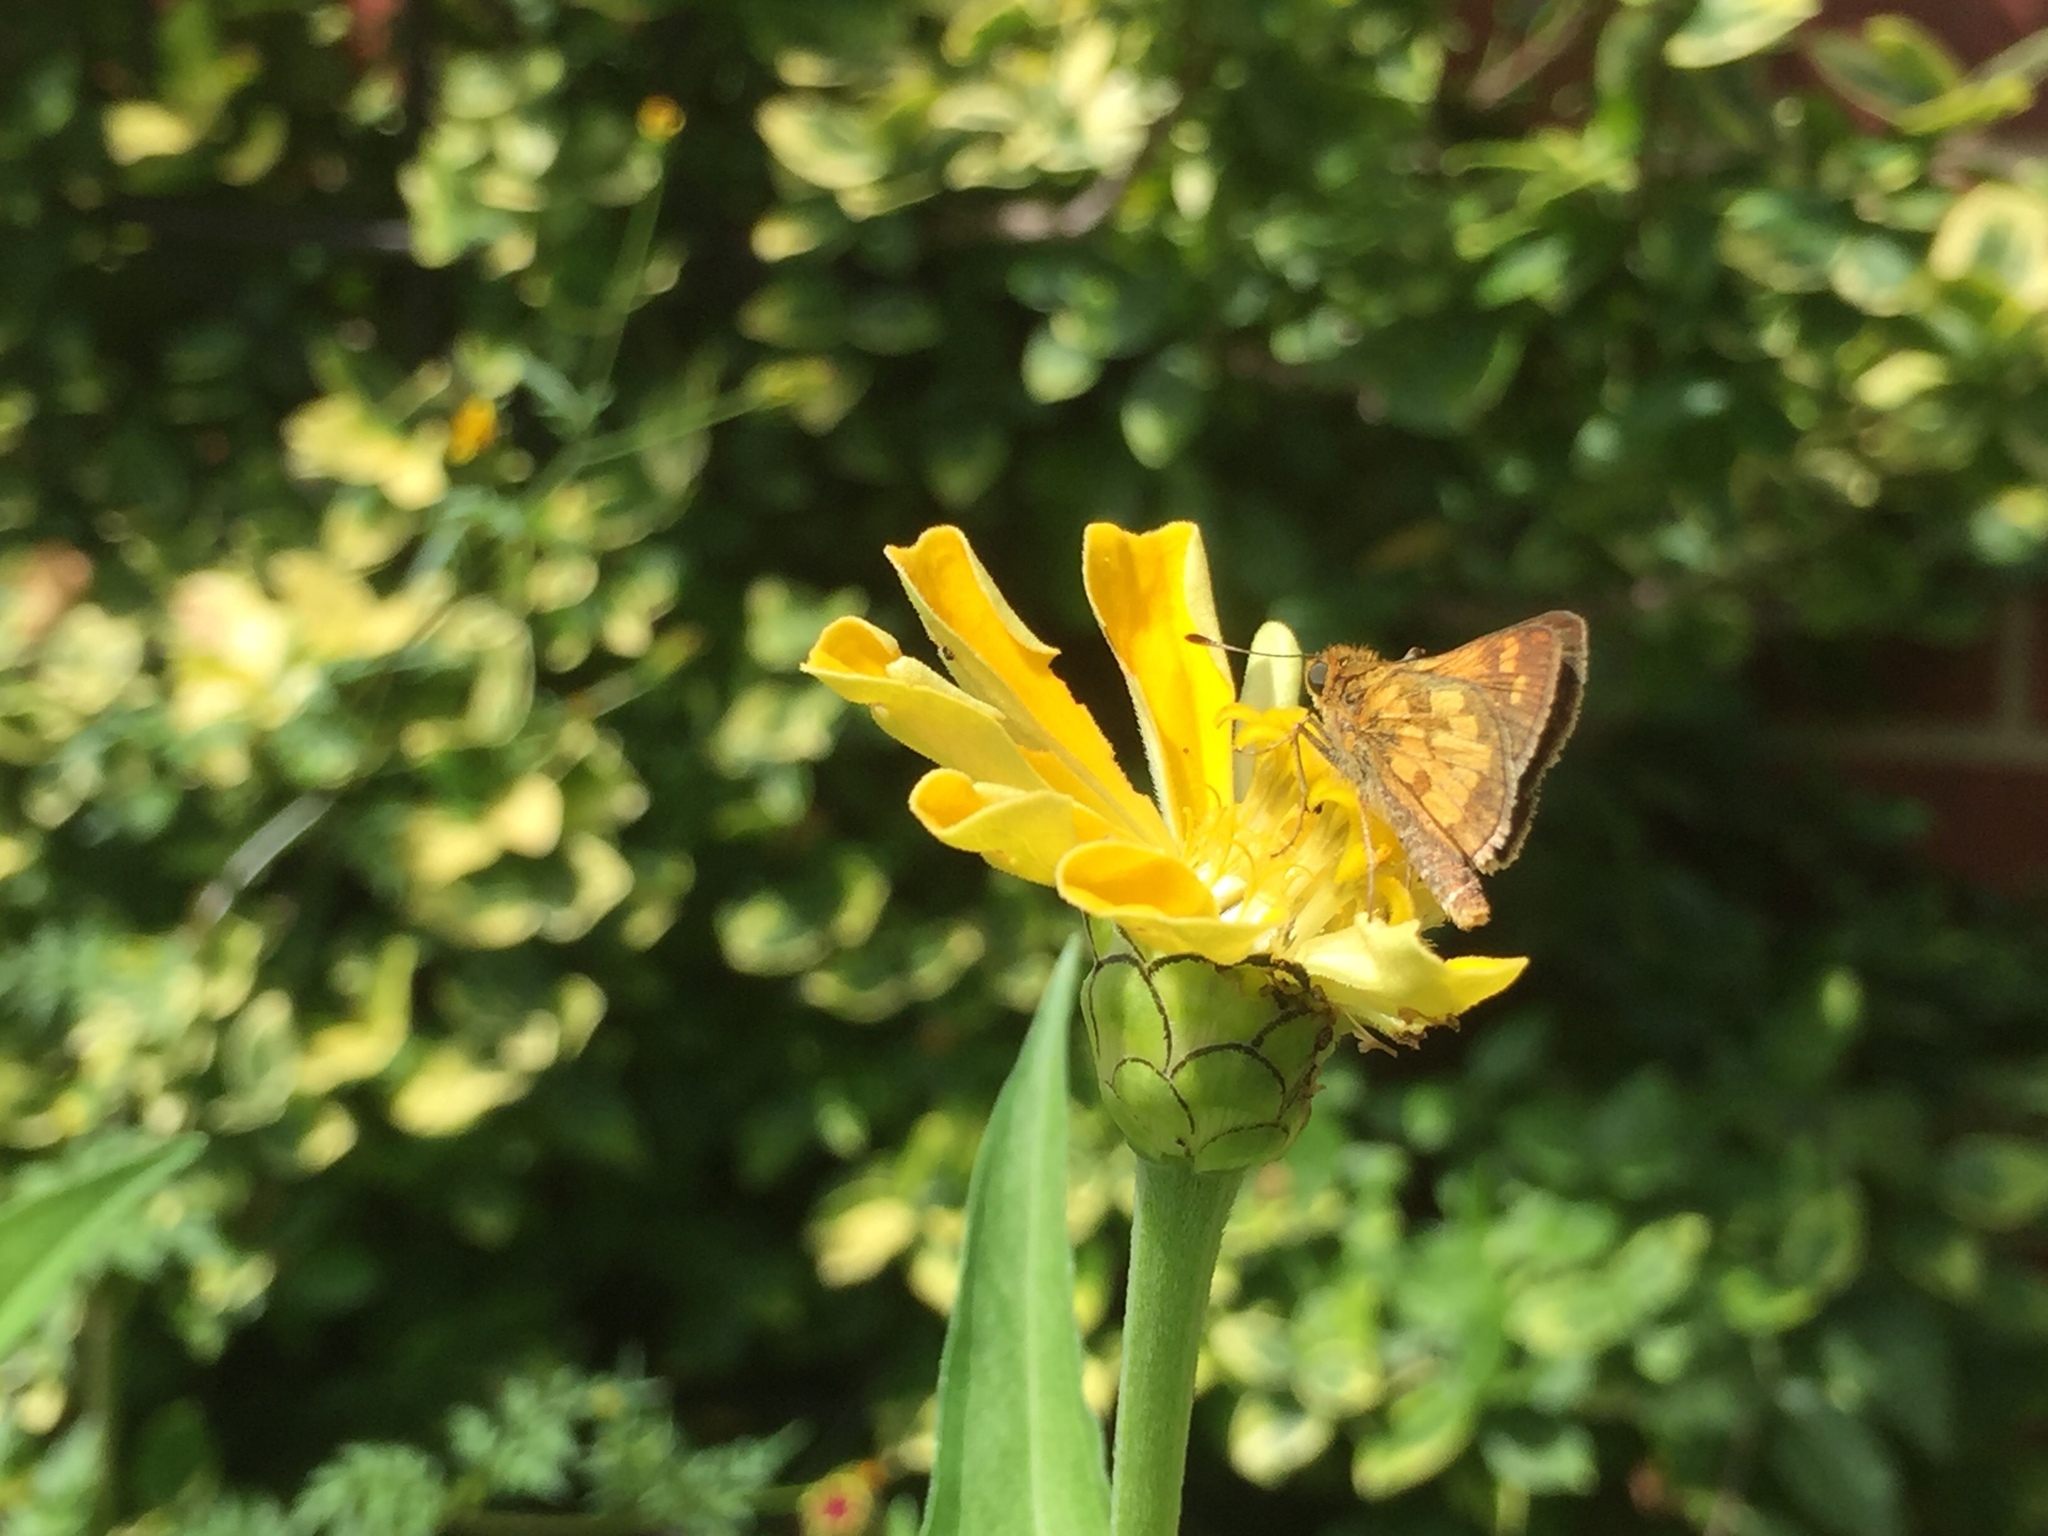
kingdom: Animalia
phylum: Arthropoda
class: Insecta
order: Lepidoptera
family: Hesperiidae
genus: Polites
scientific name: Polites coras
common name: Peck's skipper
